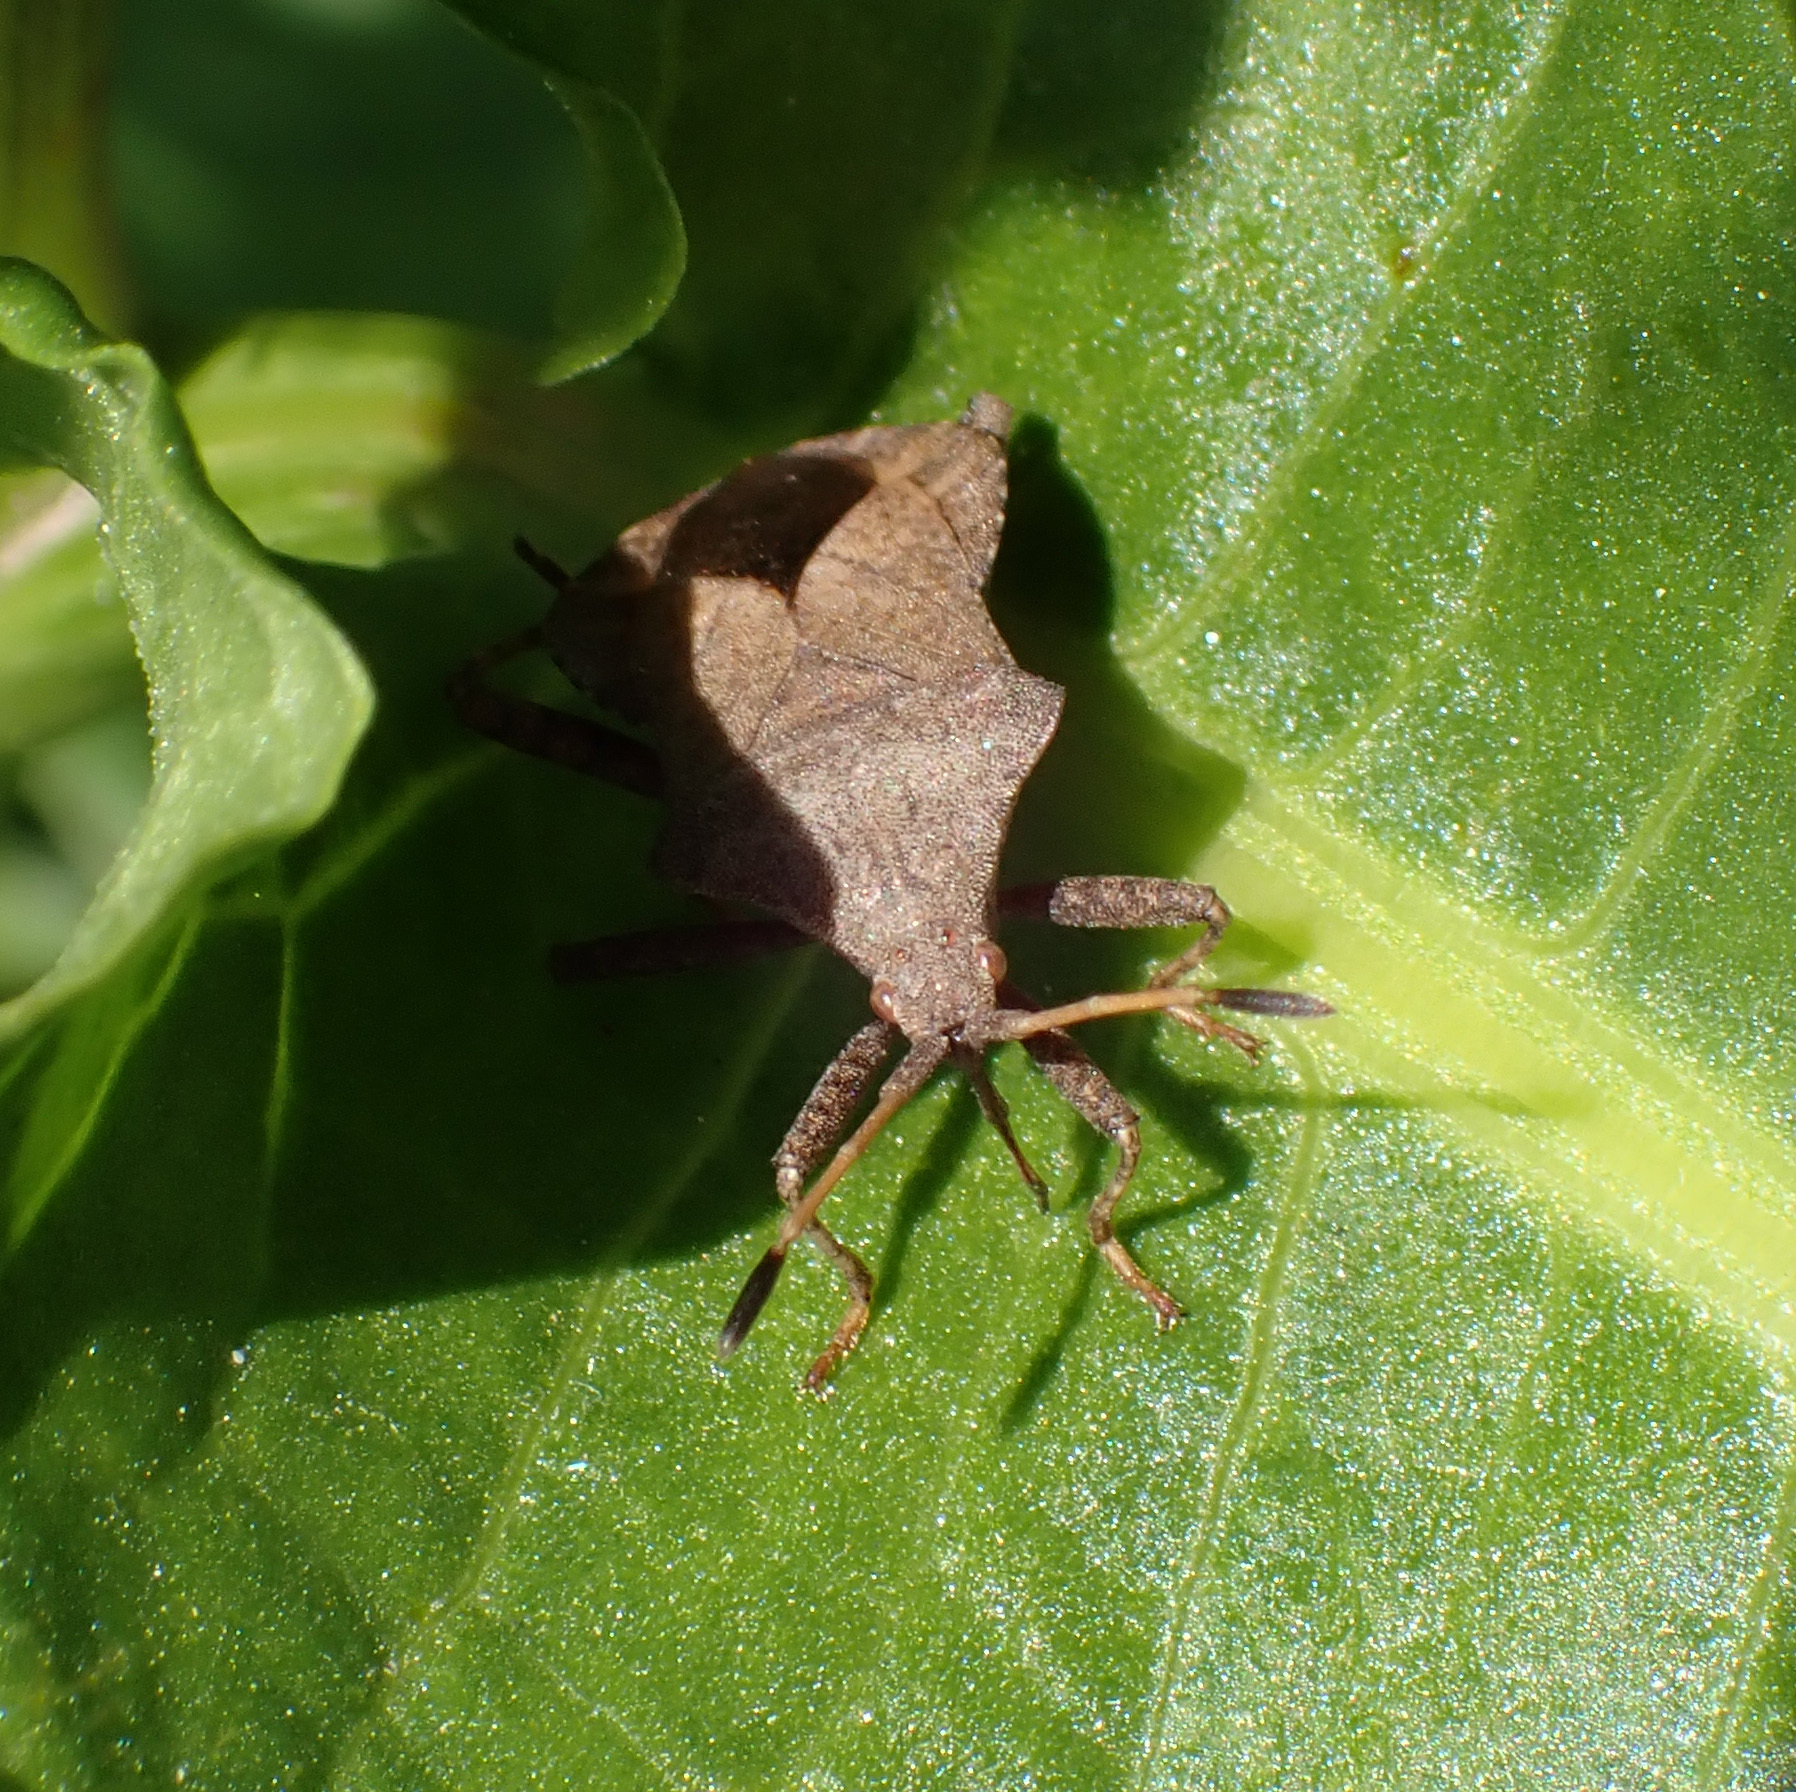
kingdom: Animalia
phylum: Arthropoda
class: Insecta
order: Hemiptera
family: Coreidae
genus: Coreus
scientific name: Coreus marginatus
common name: Dock bug
